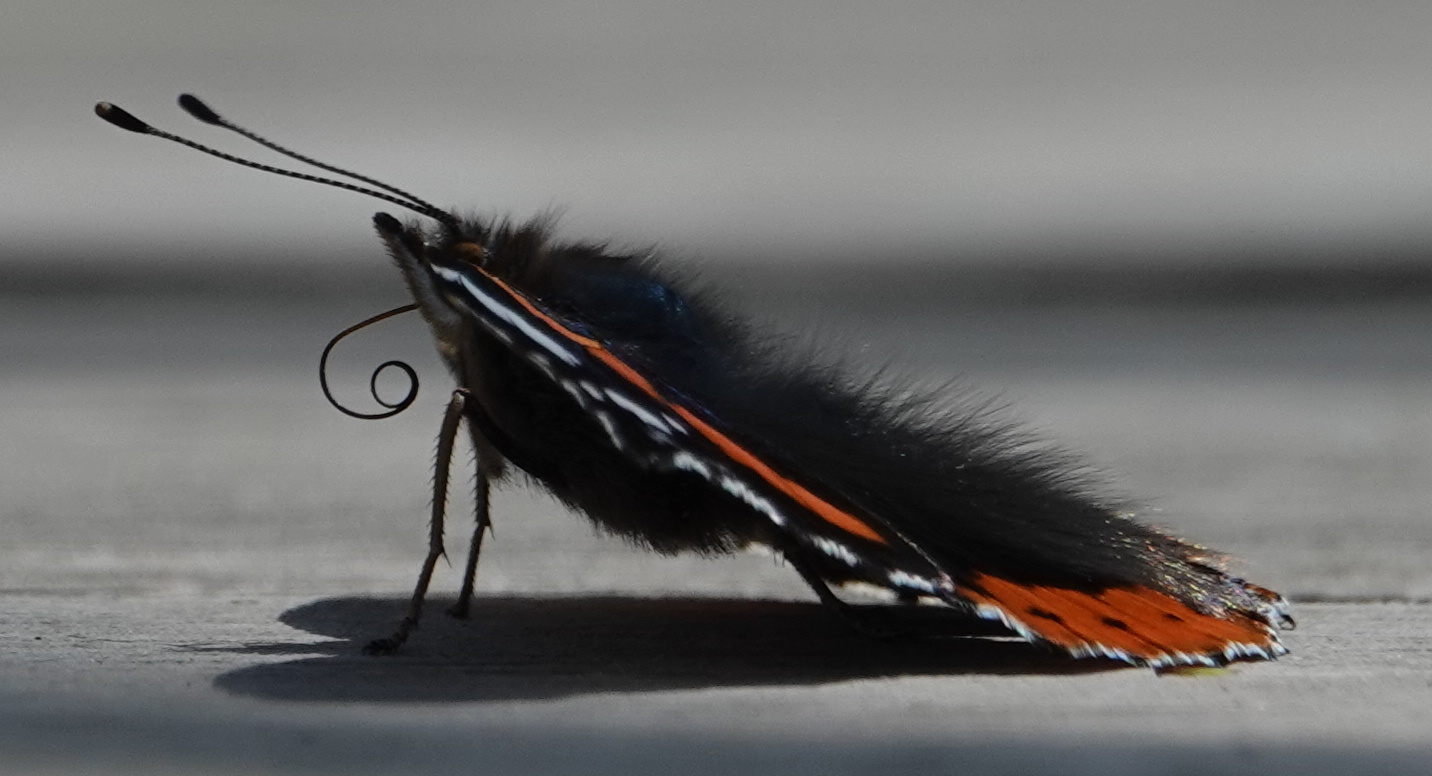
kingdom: Animalia
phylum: Arthropoda
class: Insecta
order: Lepidoptera
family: Nymphalidae
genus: Vanessa
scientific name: Vanessa atalanta
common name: Red admiral
